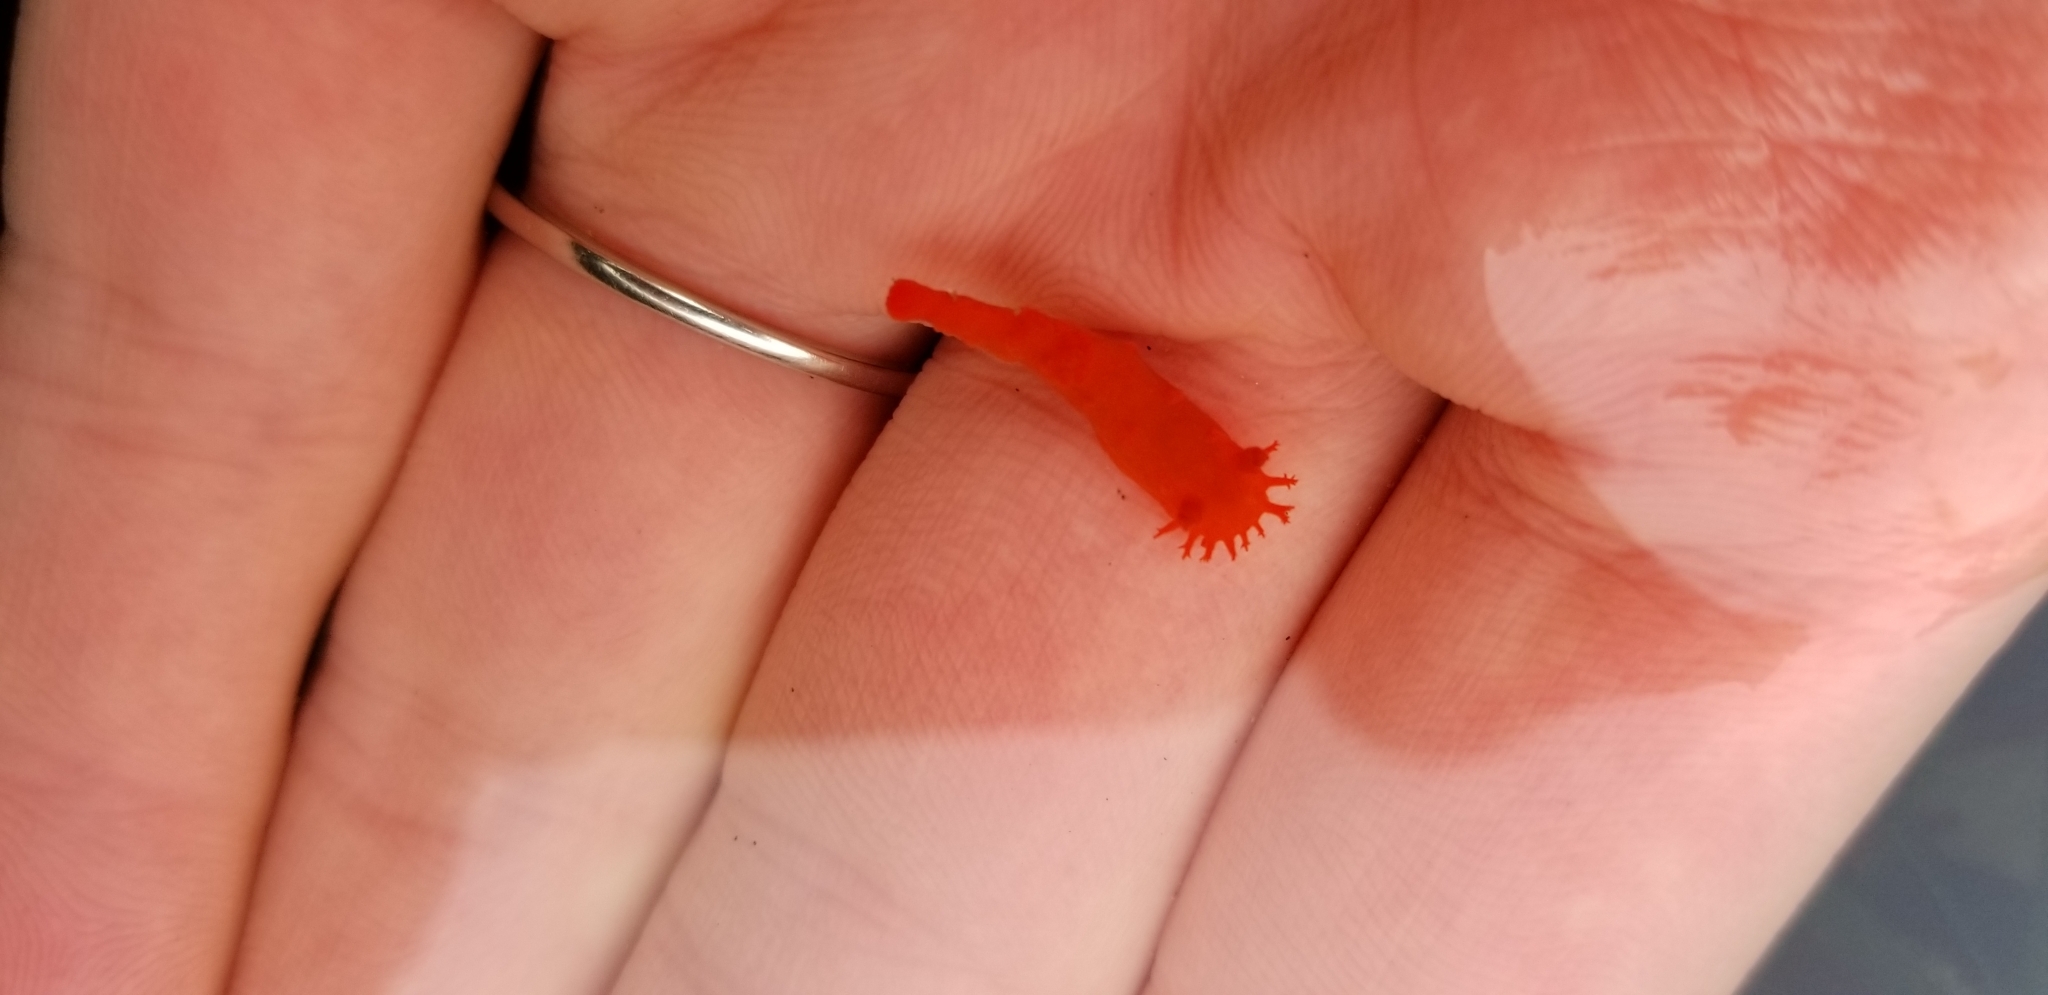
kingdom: Animalia
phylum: Mollusca
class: Gastropoda
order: Nudibranchia
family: Polyceridae
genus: Triopha
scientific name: Triopha maculata
